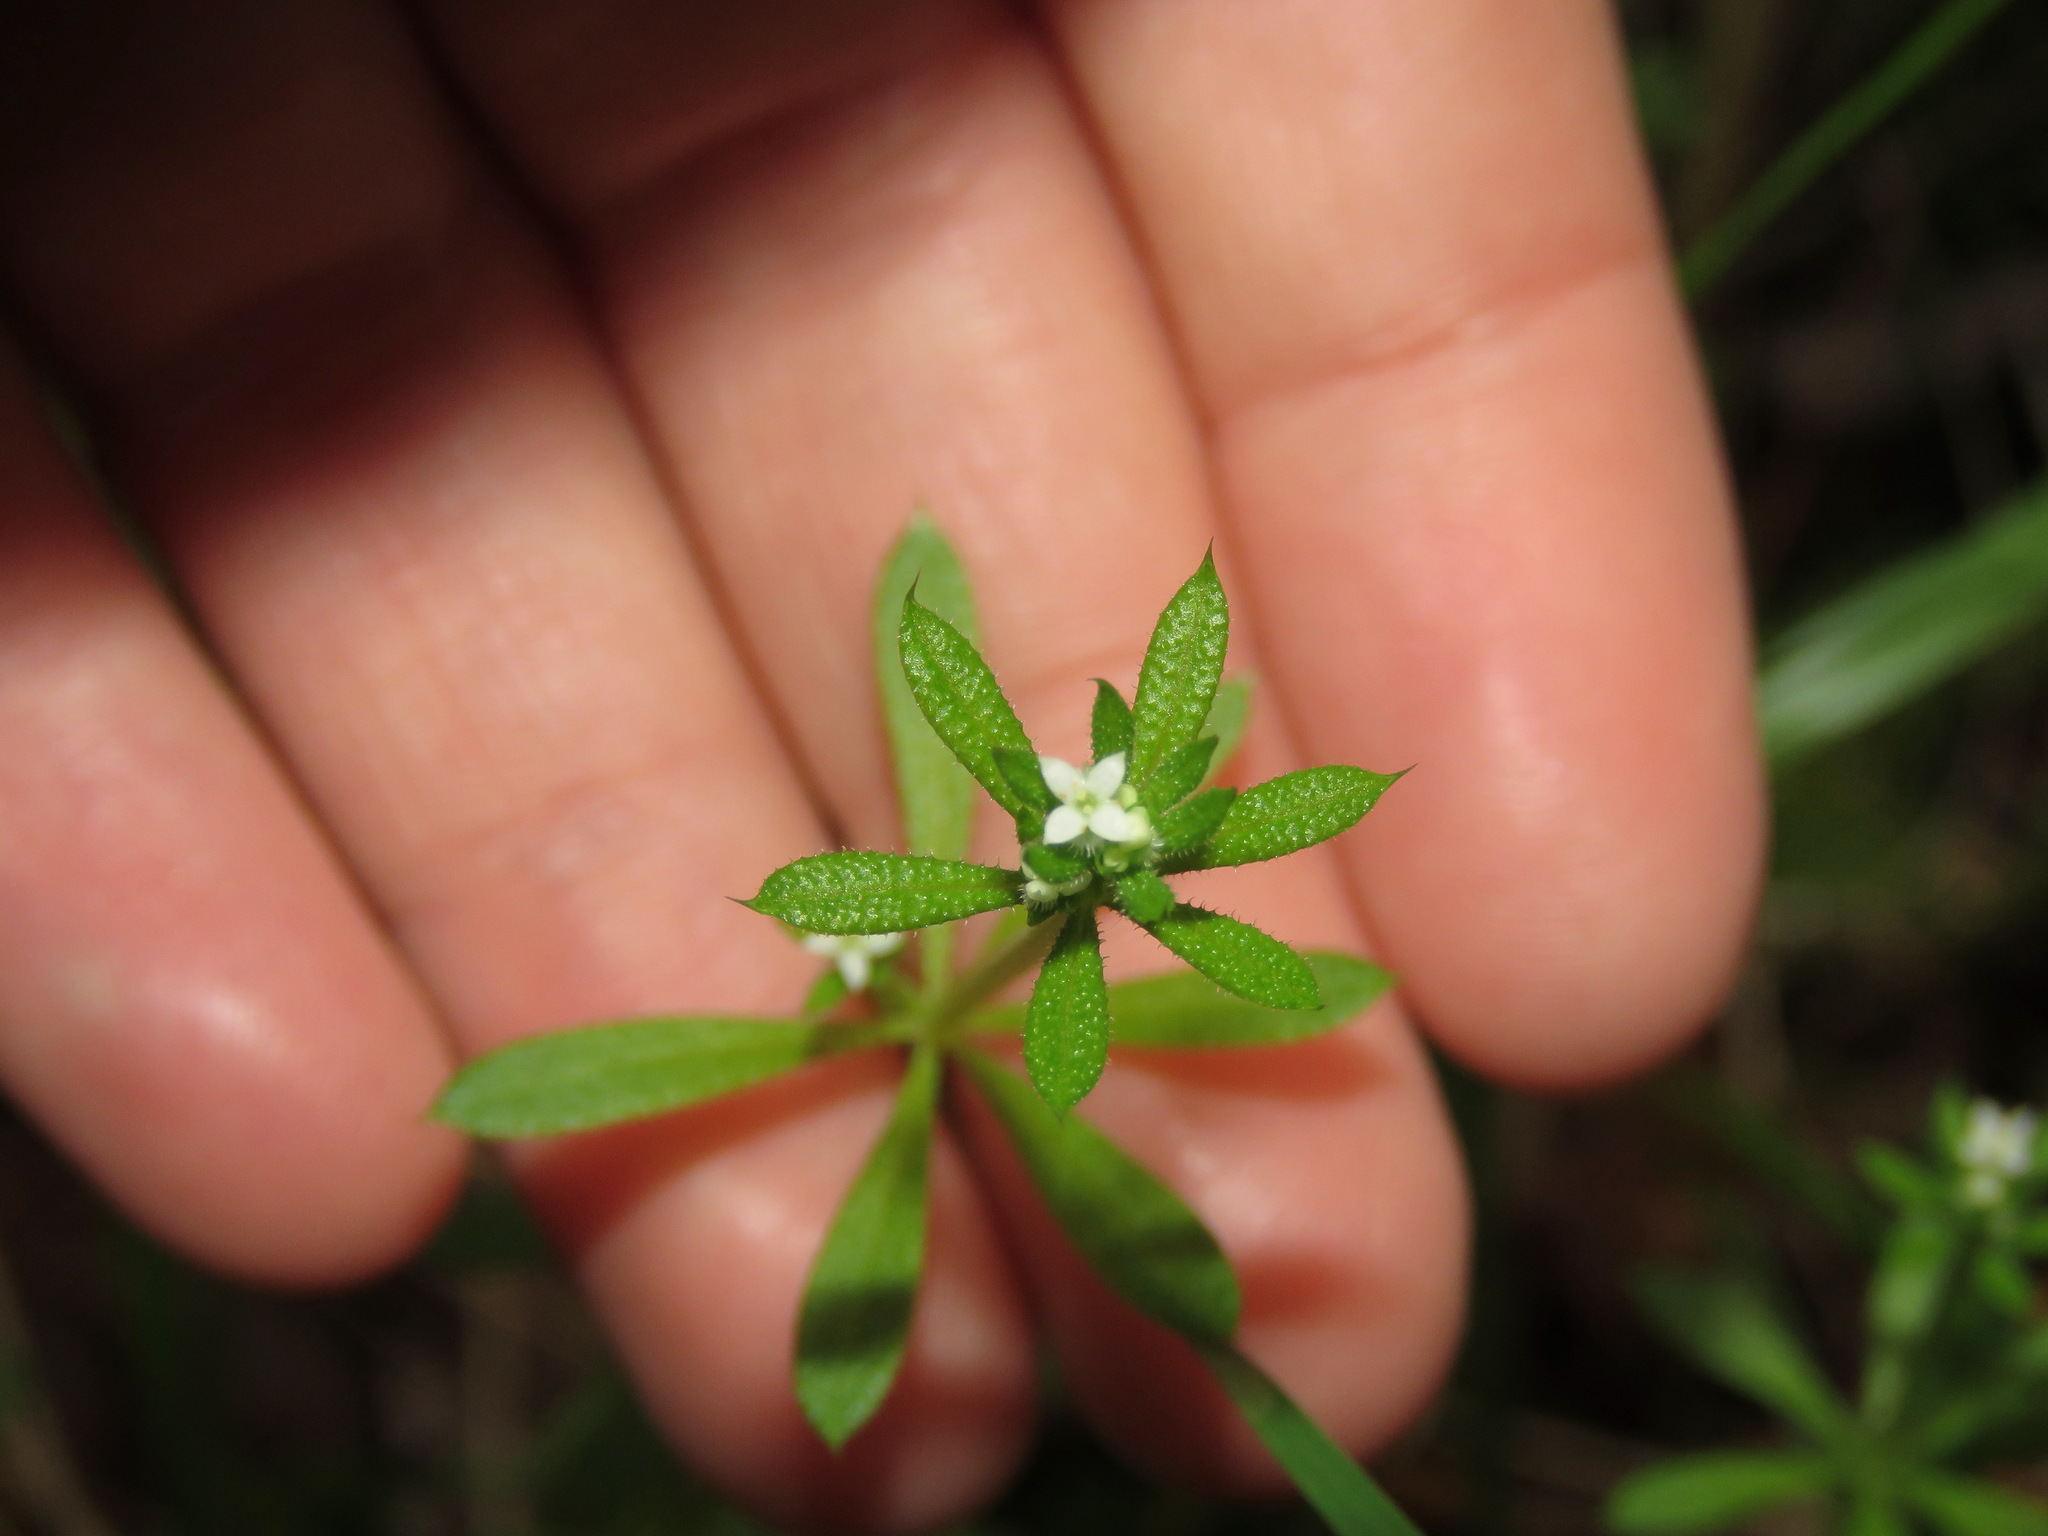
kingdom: Plantae
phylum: Tracheophyta
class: Magnoliopsida
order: Gentianales
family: Rubiaceae
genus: Galium
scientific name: Galium aparine
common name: Cleavers
